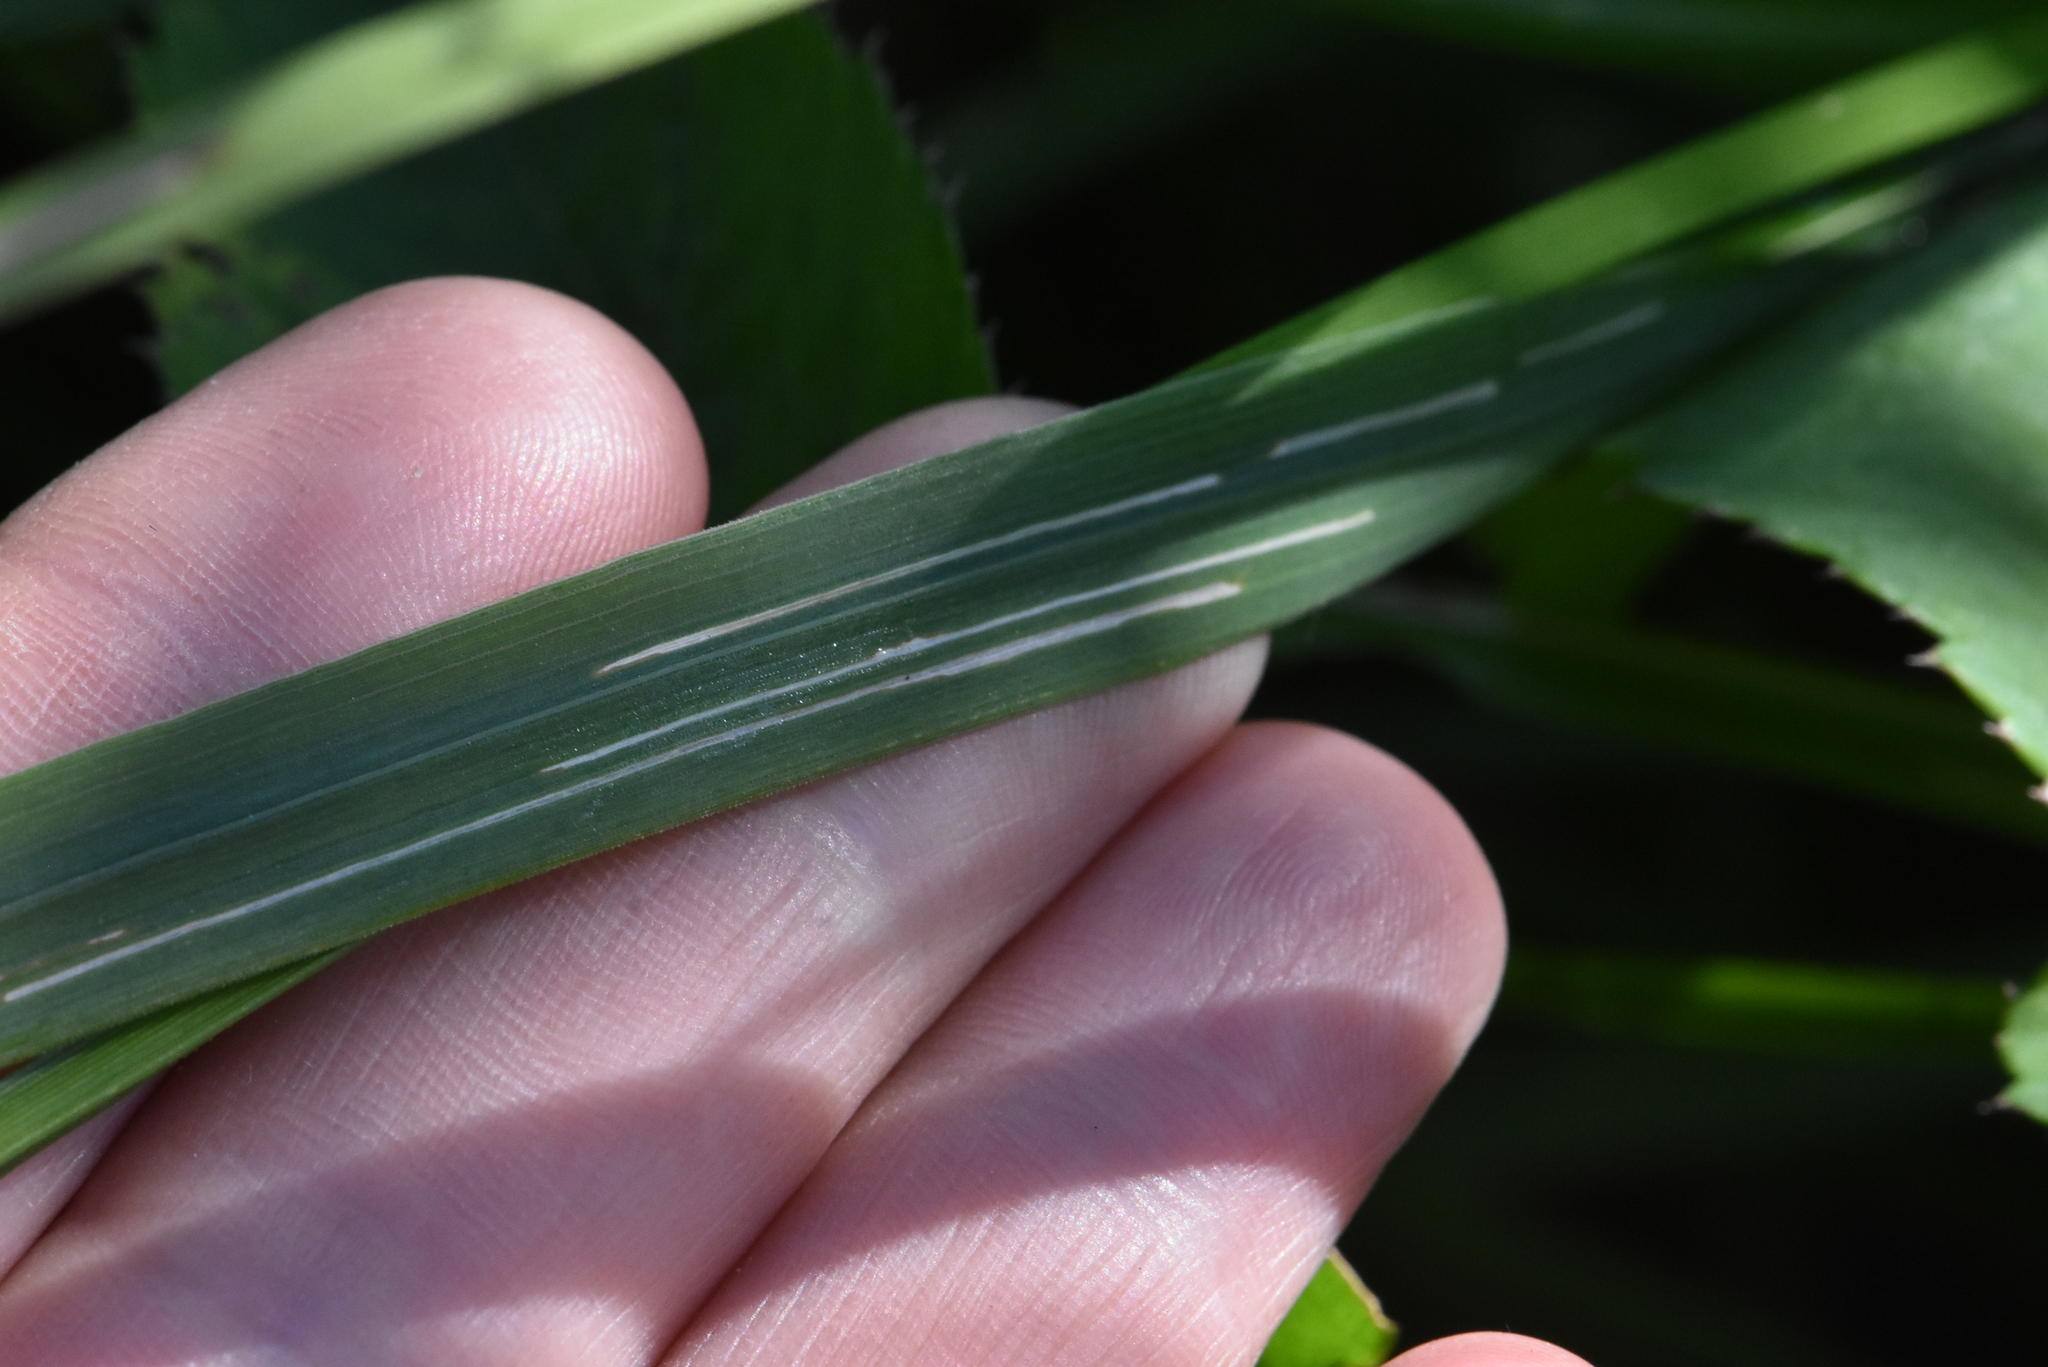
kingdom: Plantae
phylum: Tracheophyta
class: Liliopsida
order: Poales
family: Cyperaceae
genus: Carex
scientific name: Carex vulpina
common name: True fox-sedge
